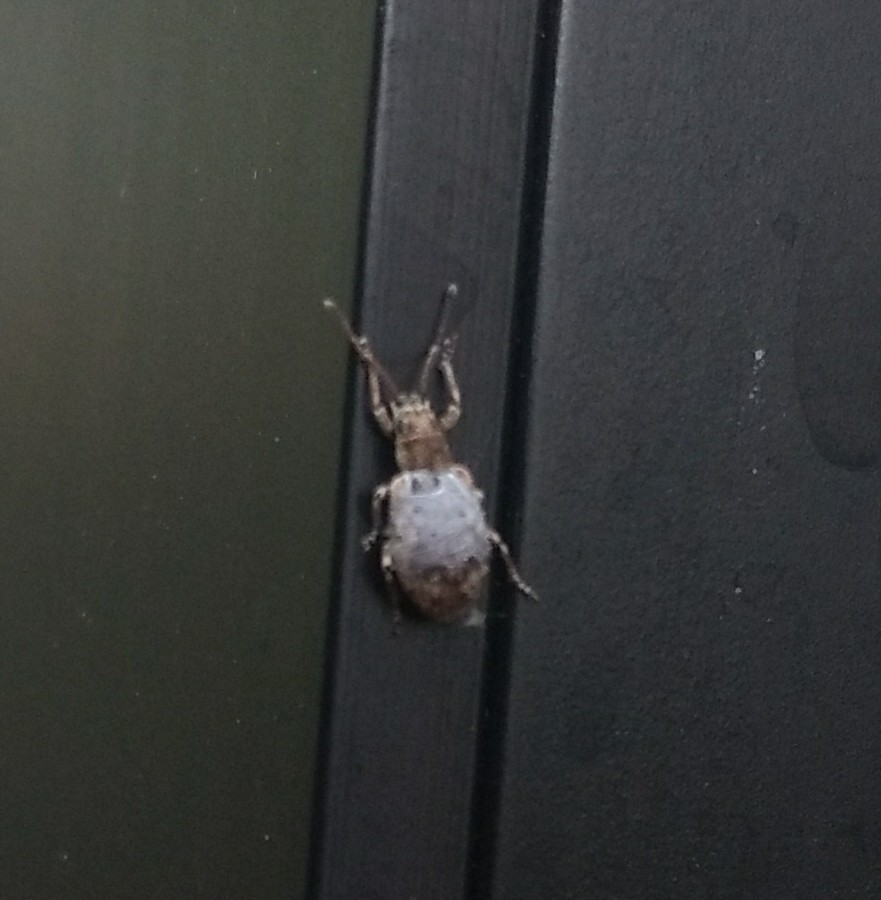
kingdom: Animalia
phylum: Arthropoda
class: Insecta
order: Coleoptera
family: Curculionidae
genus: Pseudoedophrys
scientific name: Pseudoedophrys hilleri
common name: Weevil
